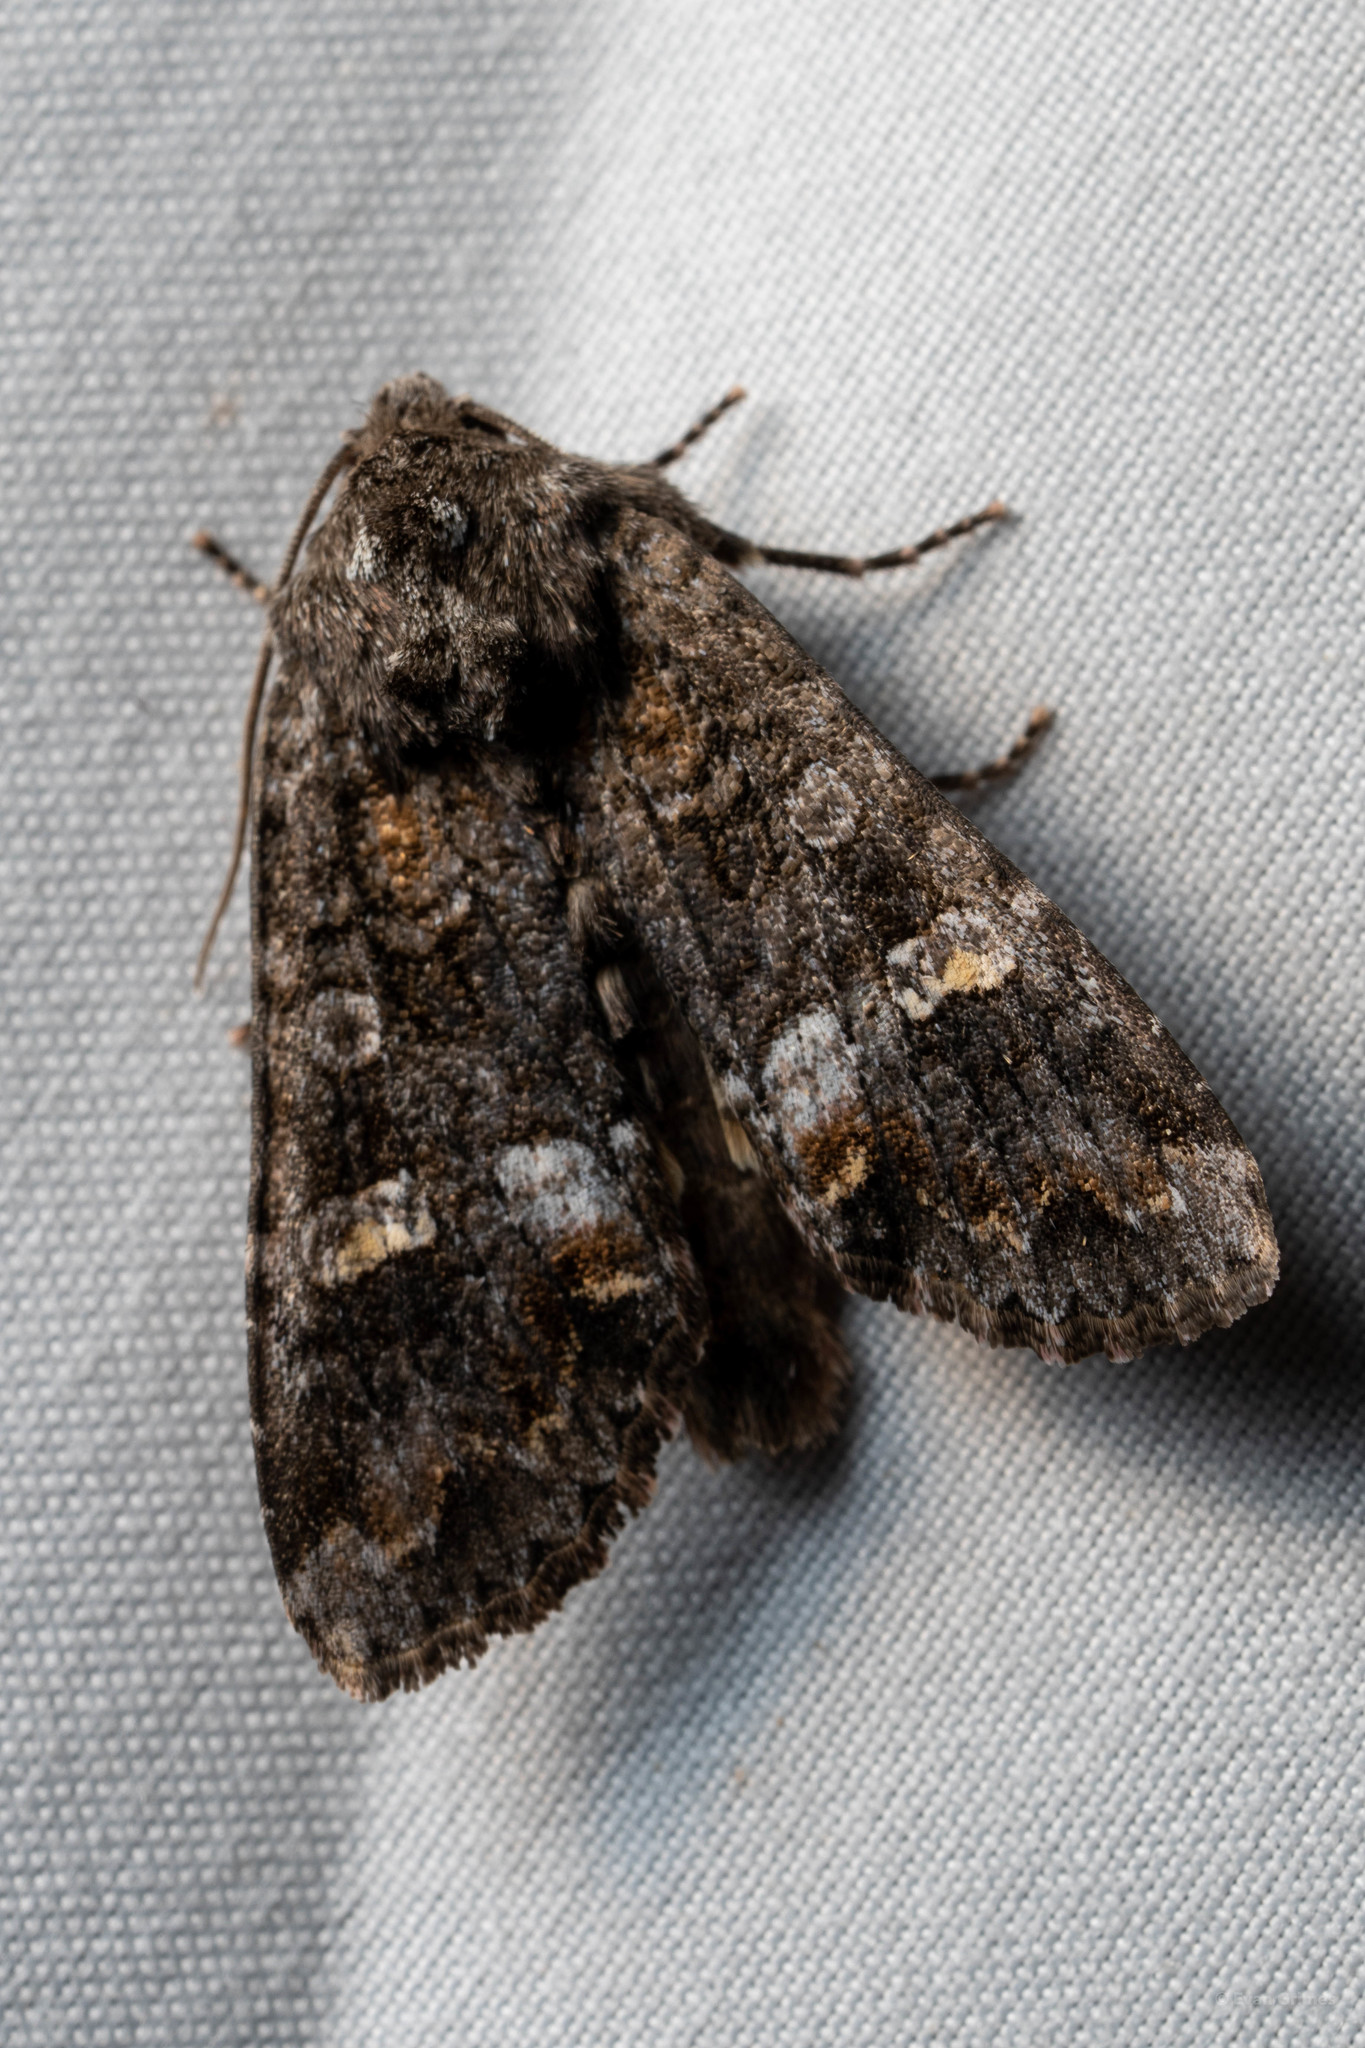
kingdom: Animalia
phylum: Arthropoda
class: Insecta
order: Lepidoptera
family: Noctuidae
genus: Spiramater
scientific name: Spiramater lutra
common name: Otter spiramater moth
